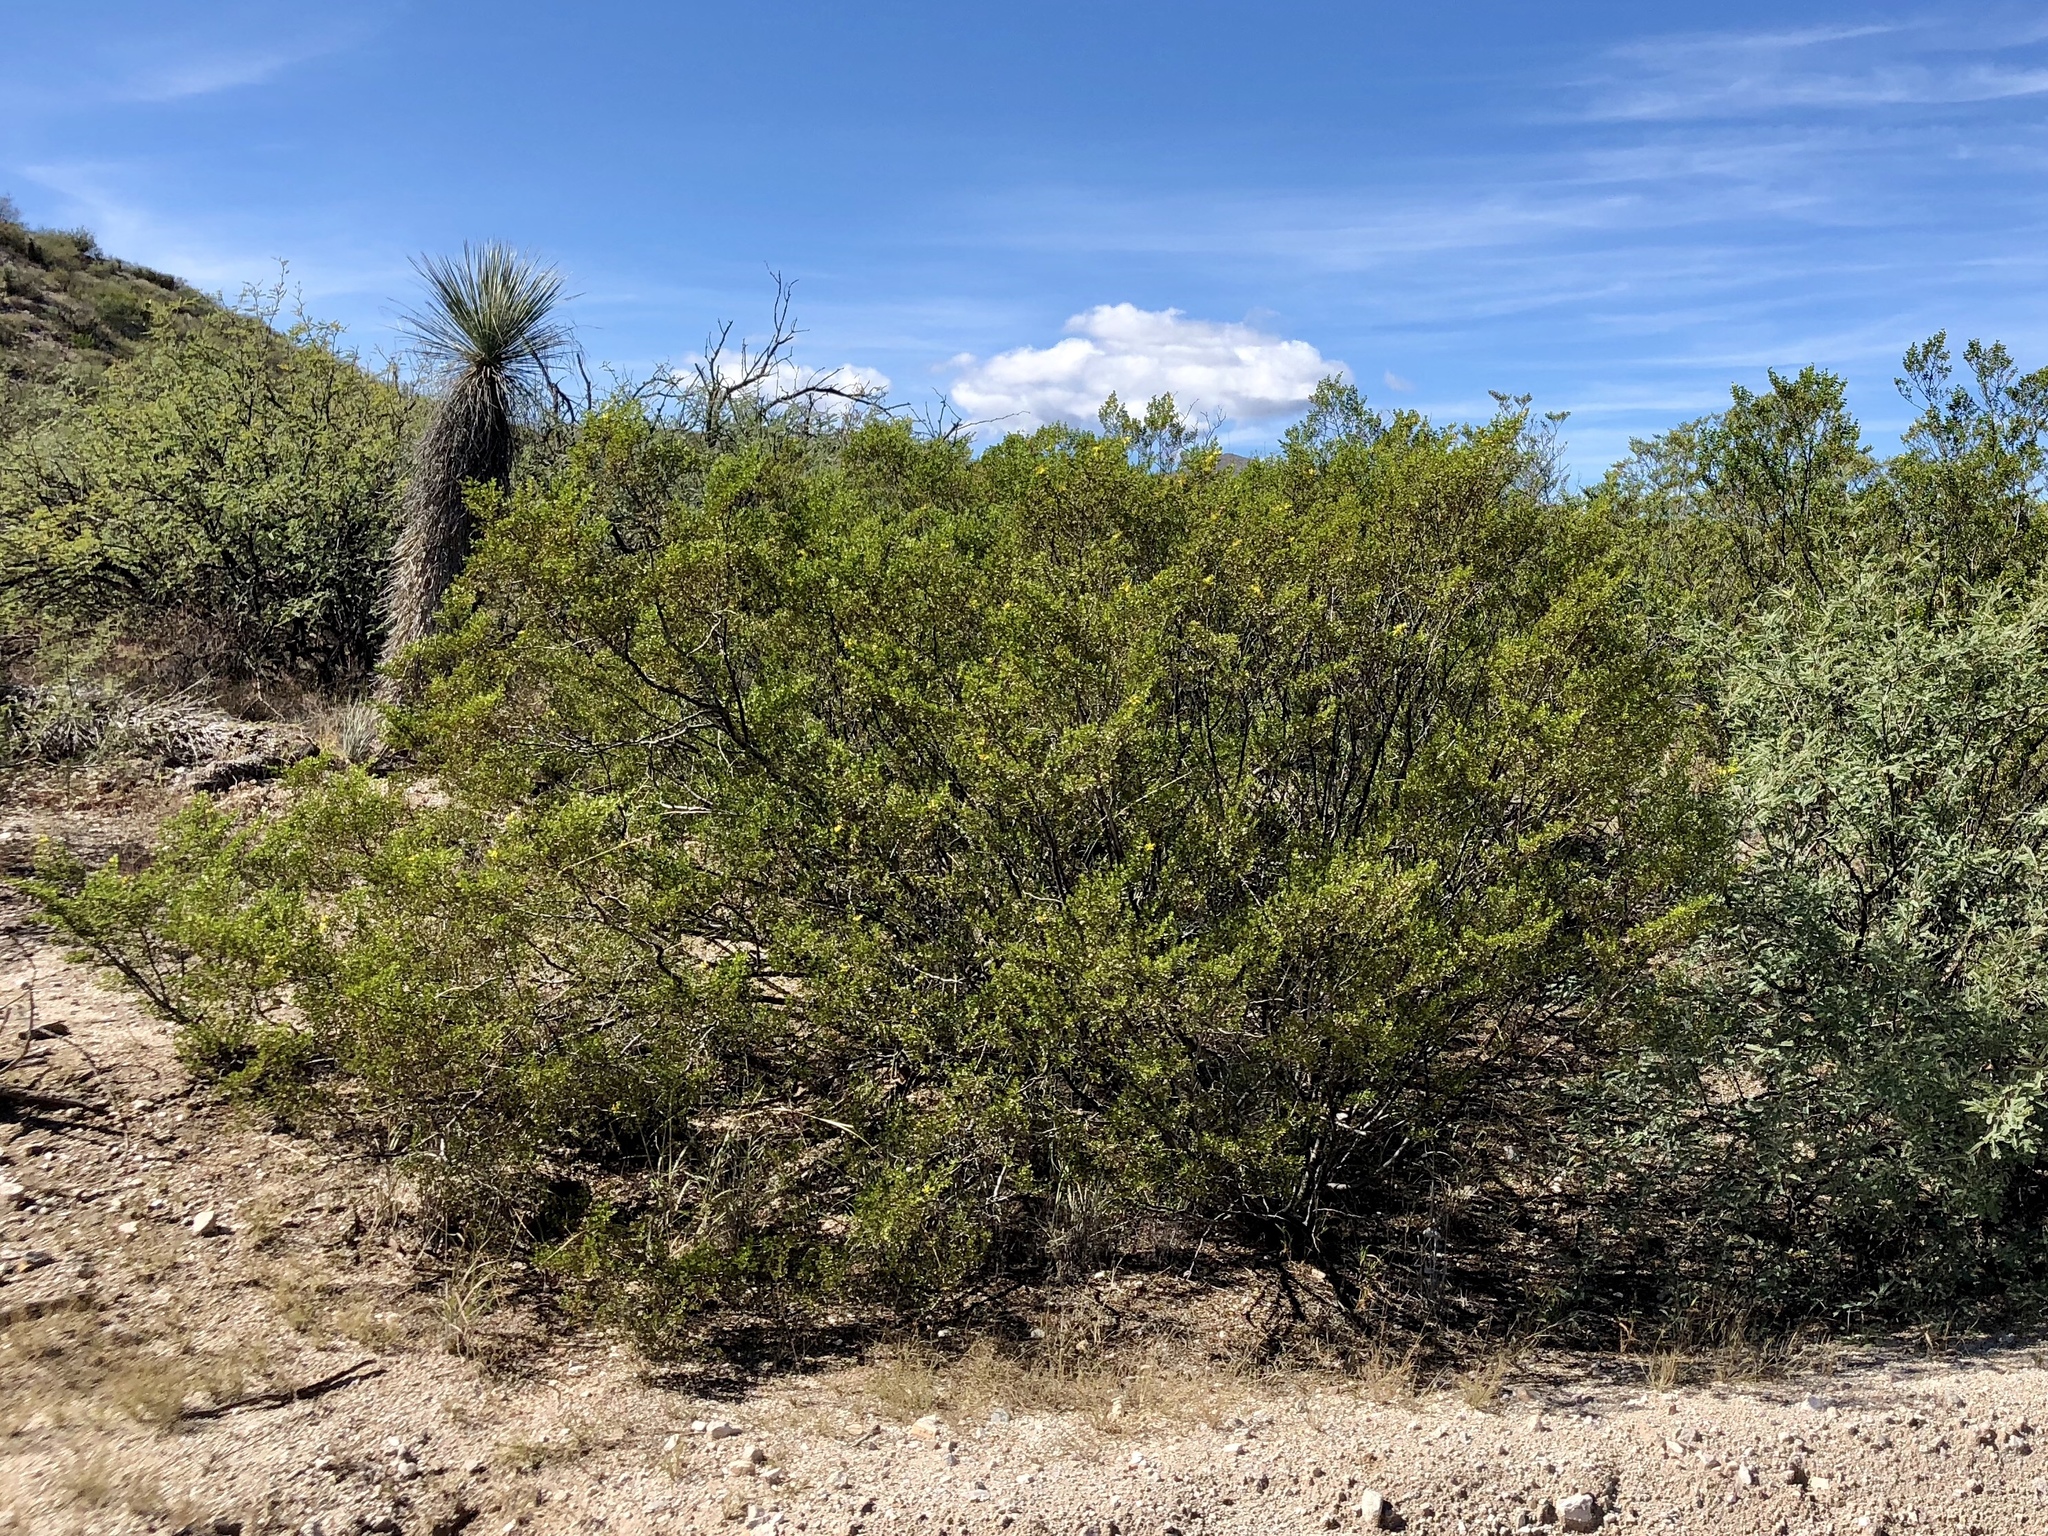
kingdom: Plantae
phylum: Tracheophyta
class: Magnoliopsida
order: Zygophyllales
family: Zygophyllaceae
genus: Larrea
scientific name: Larrea tridentata
